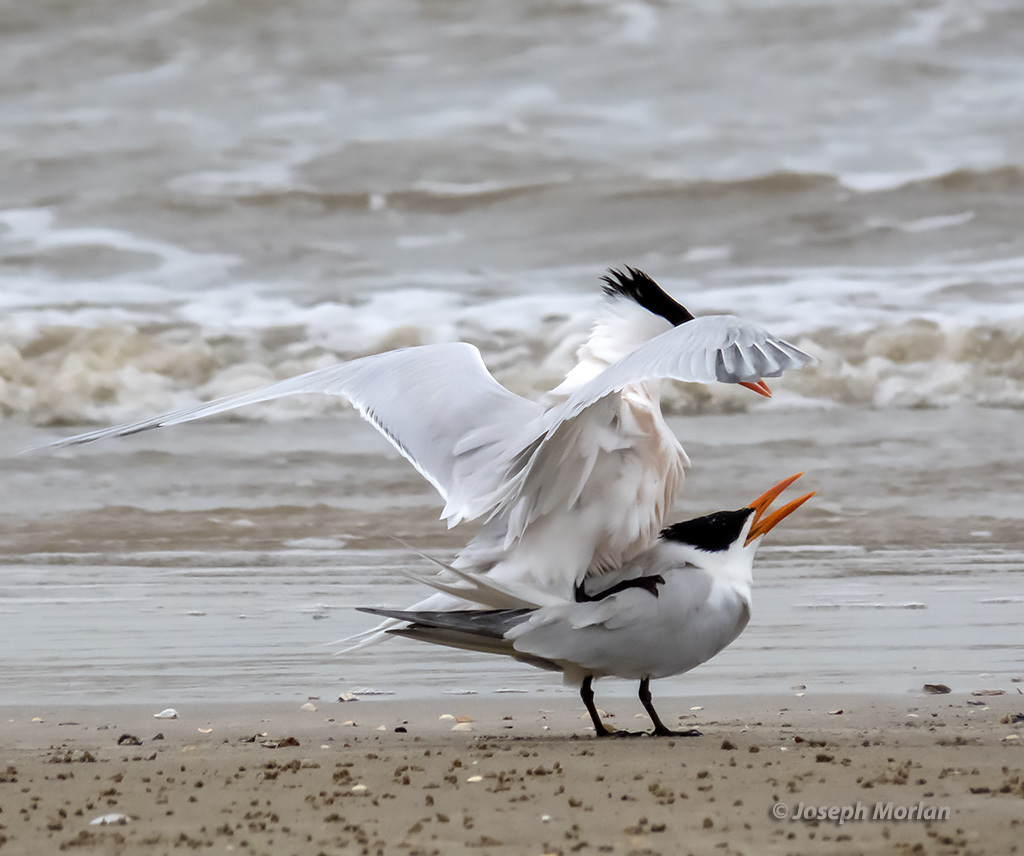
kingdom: Animalia
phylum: Chordata
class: Aves
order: Charadriiformes
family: Laridae
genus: Thalasseus
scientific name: Thalasseus maximus
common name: Royal tern
